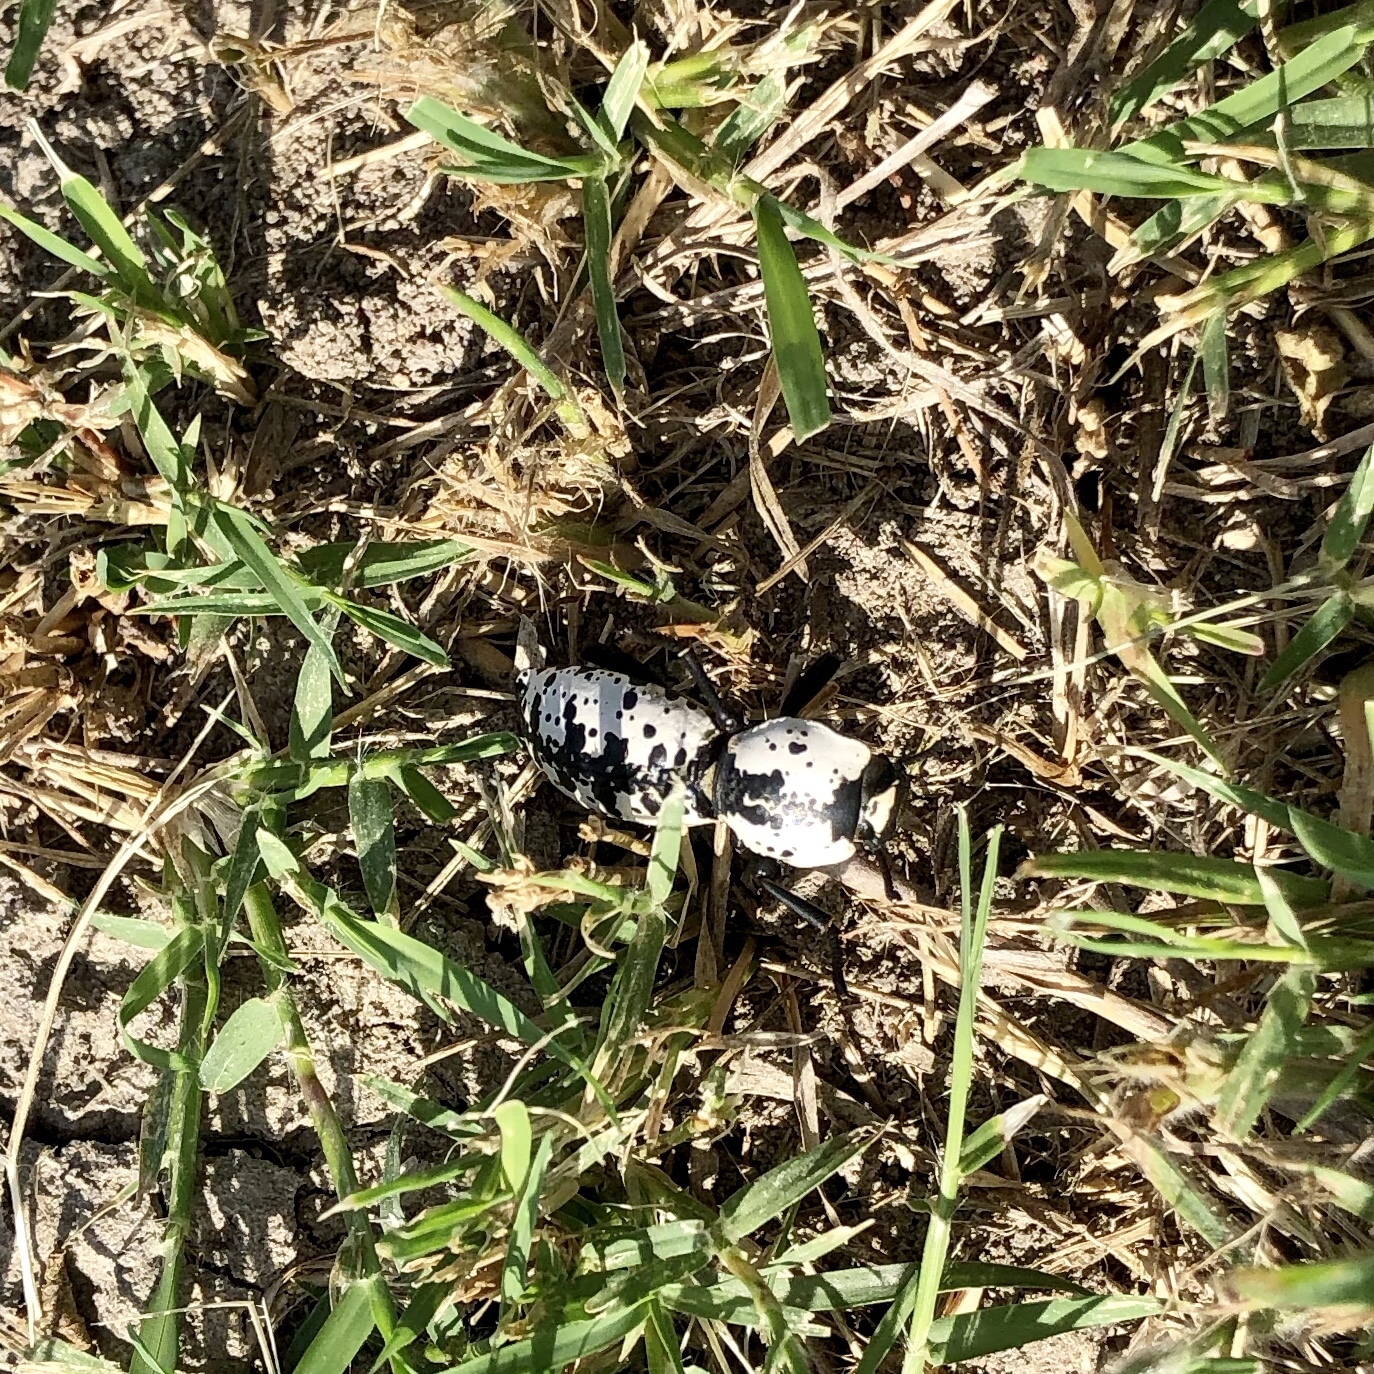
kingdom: Animalia
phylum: Arthropoda
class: Insecta
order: Coleoptera
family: Zopheridae
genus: Zopherus
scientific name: Zopherus nodulosus
